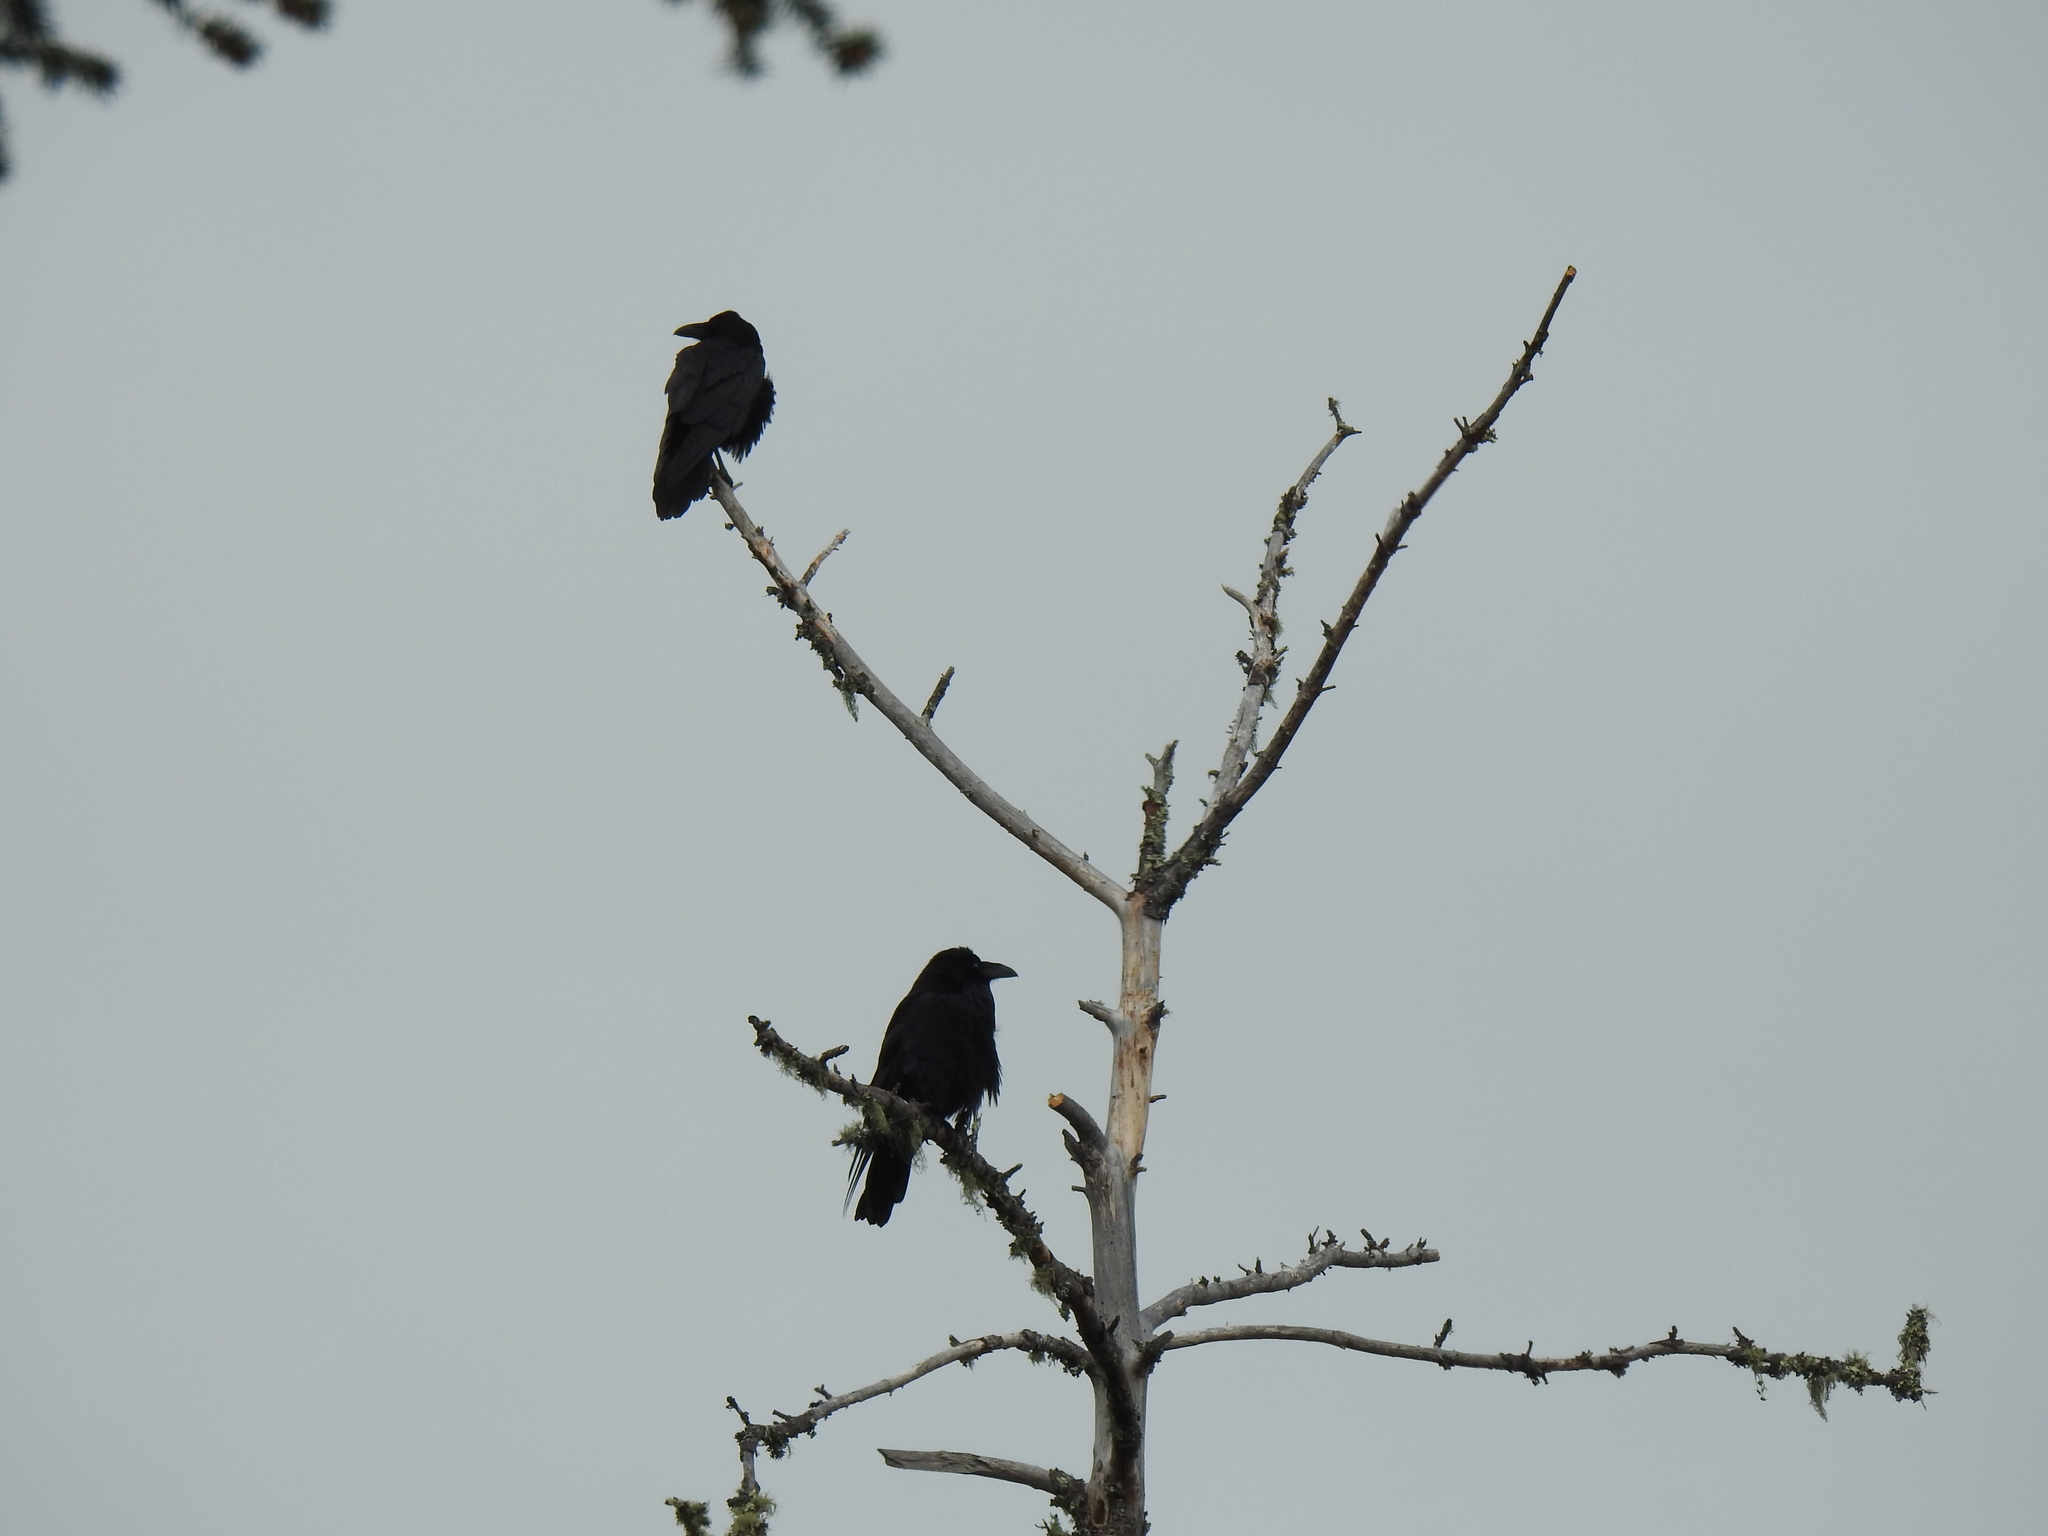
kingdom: Animalia
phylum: Chordata
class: Aves
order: Passeriformes
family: Corvidae
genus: Corvus
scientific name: Corvus corax
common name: Common raven
